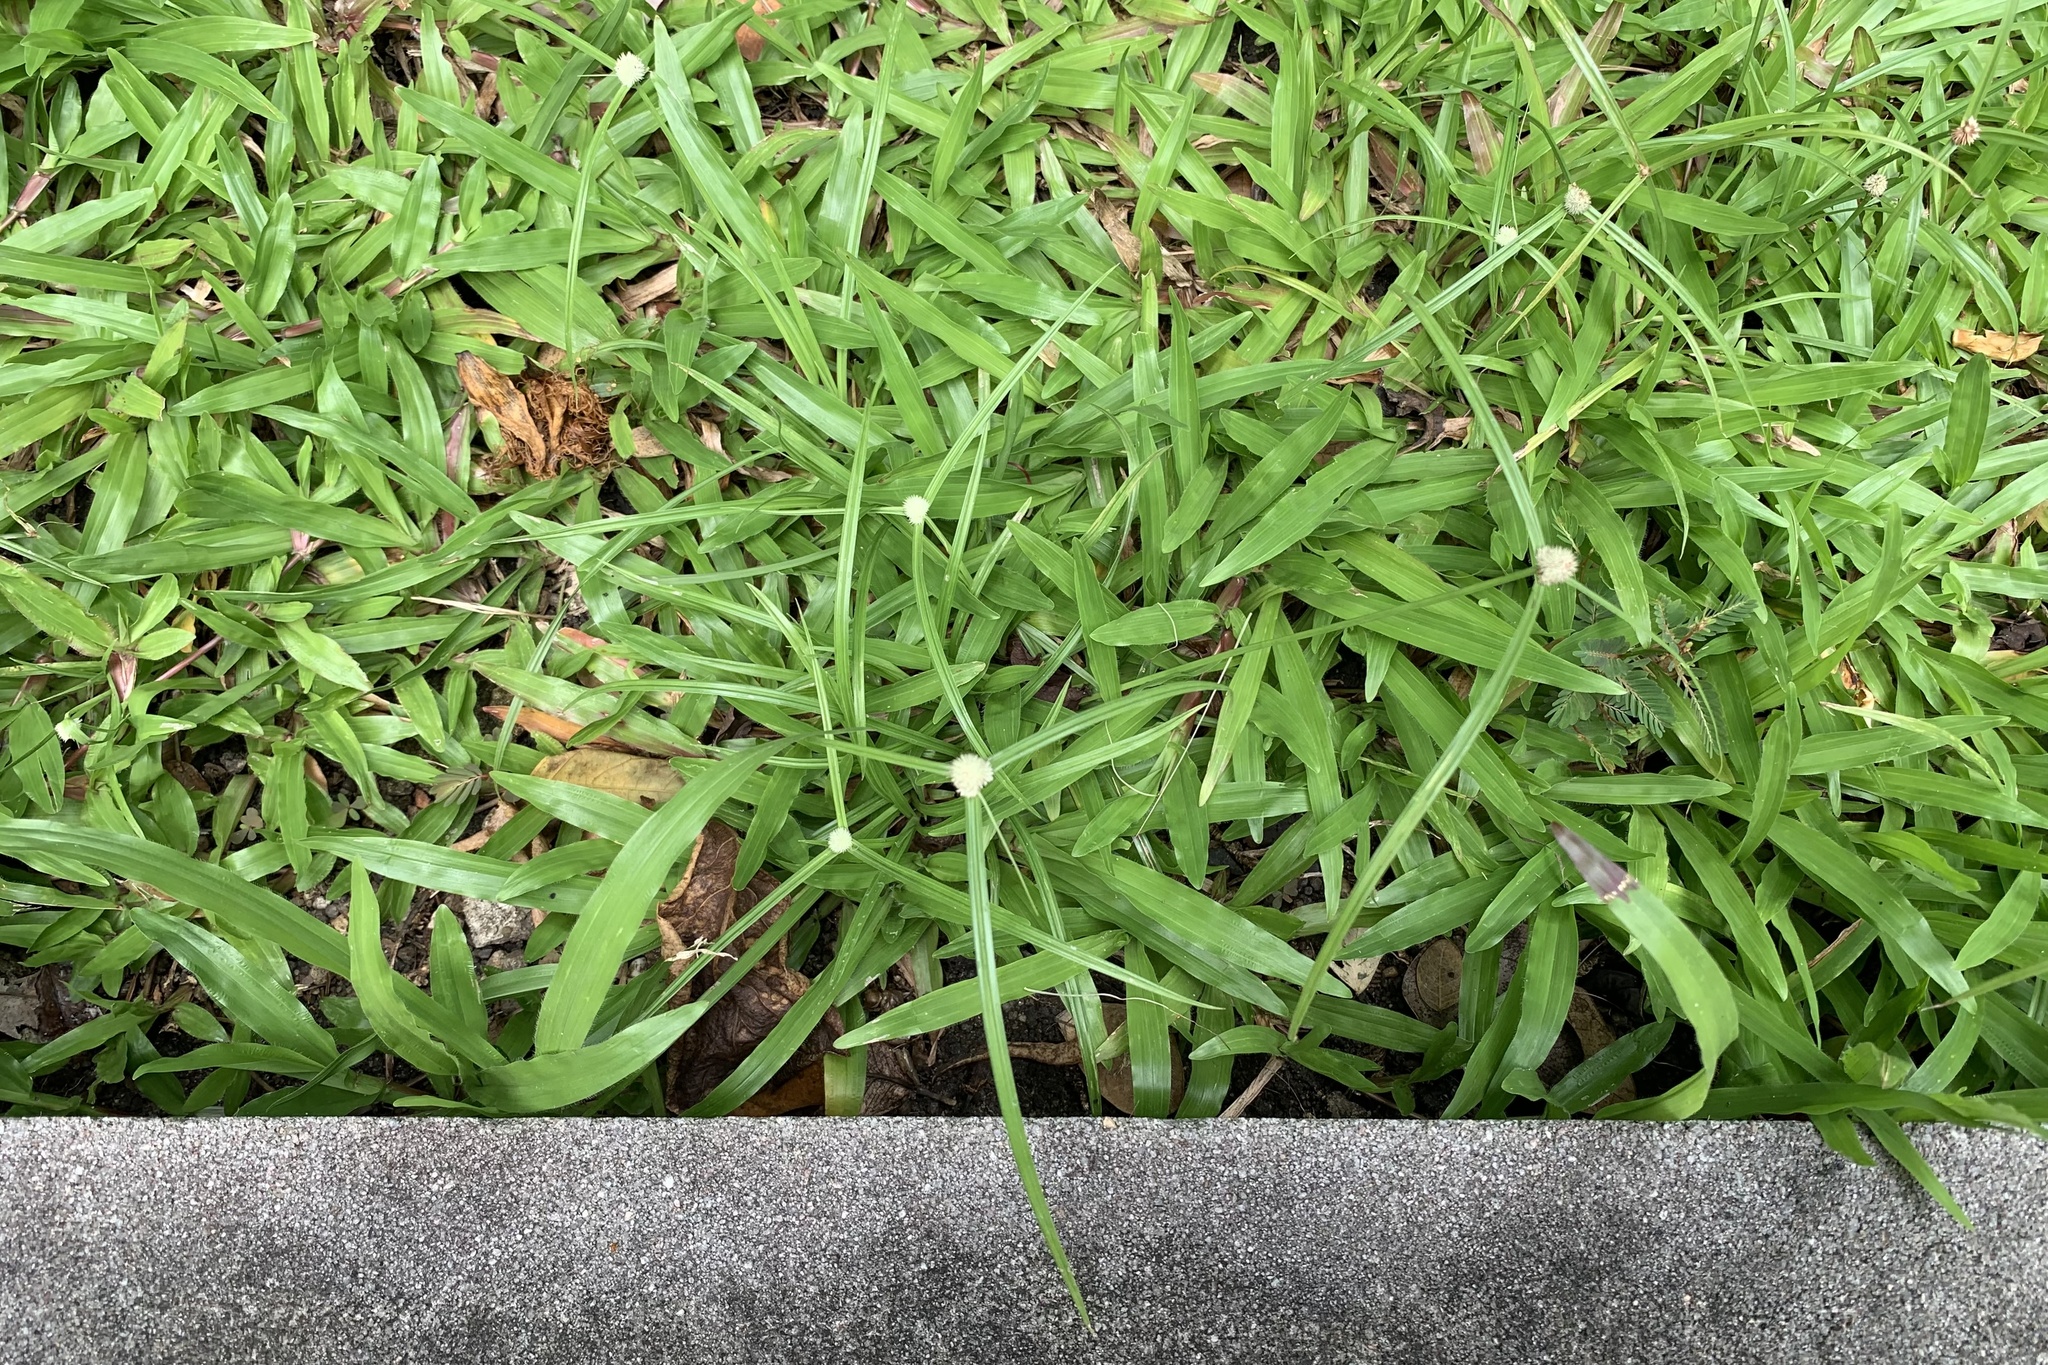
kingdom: Plantae
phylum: Tracheophyta
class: Liliopsida
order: Poales
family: Cyperaceae
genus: Cyperus
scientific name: Cyperus mindorensis
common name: Flatsedge
